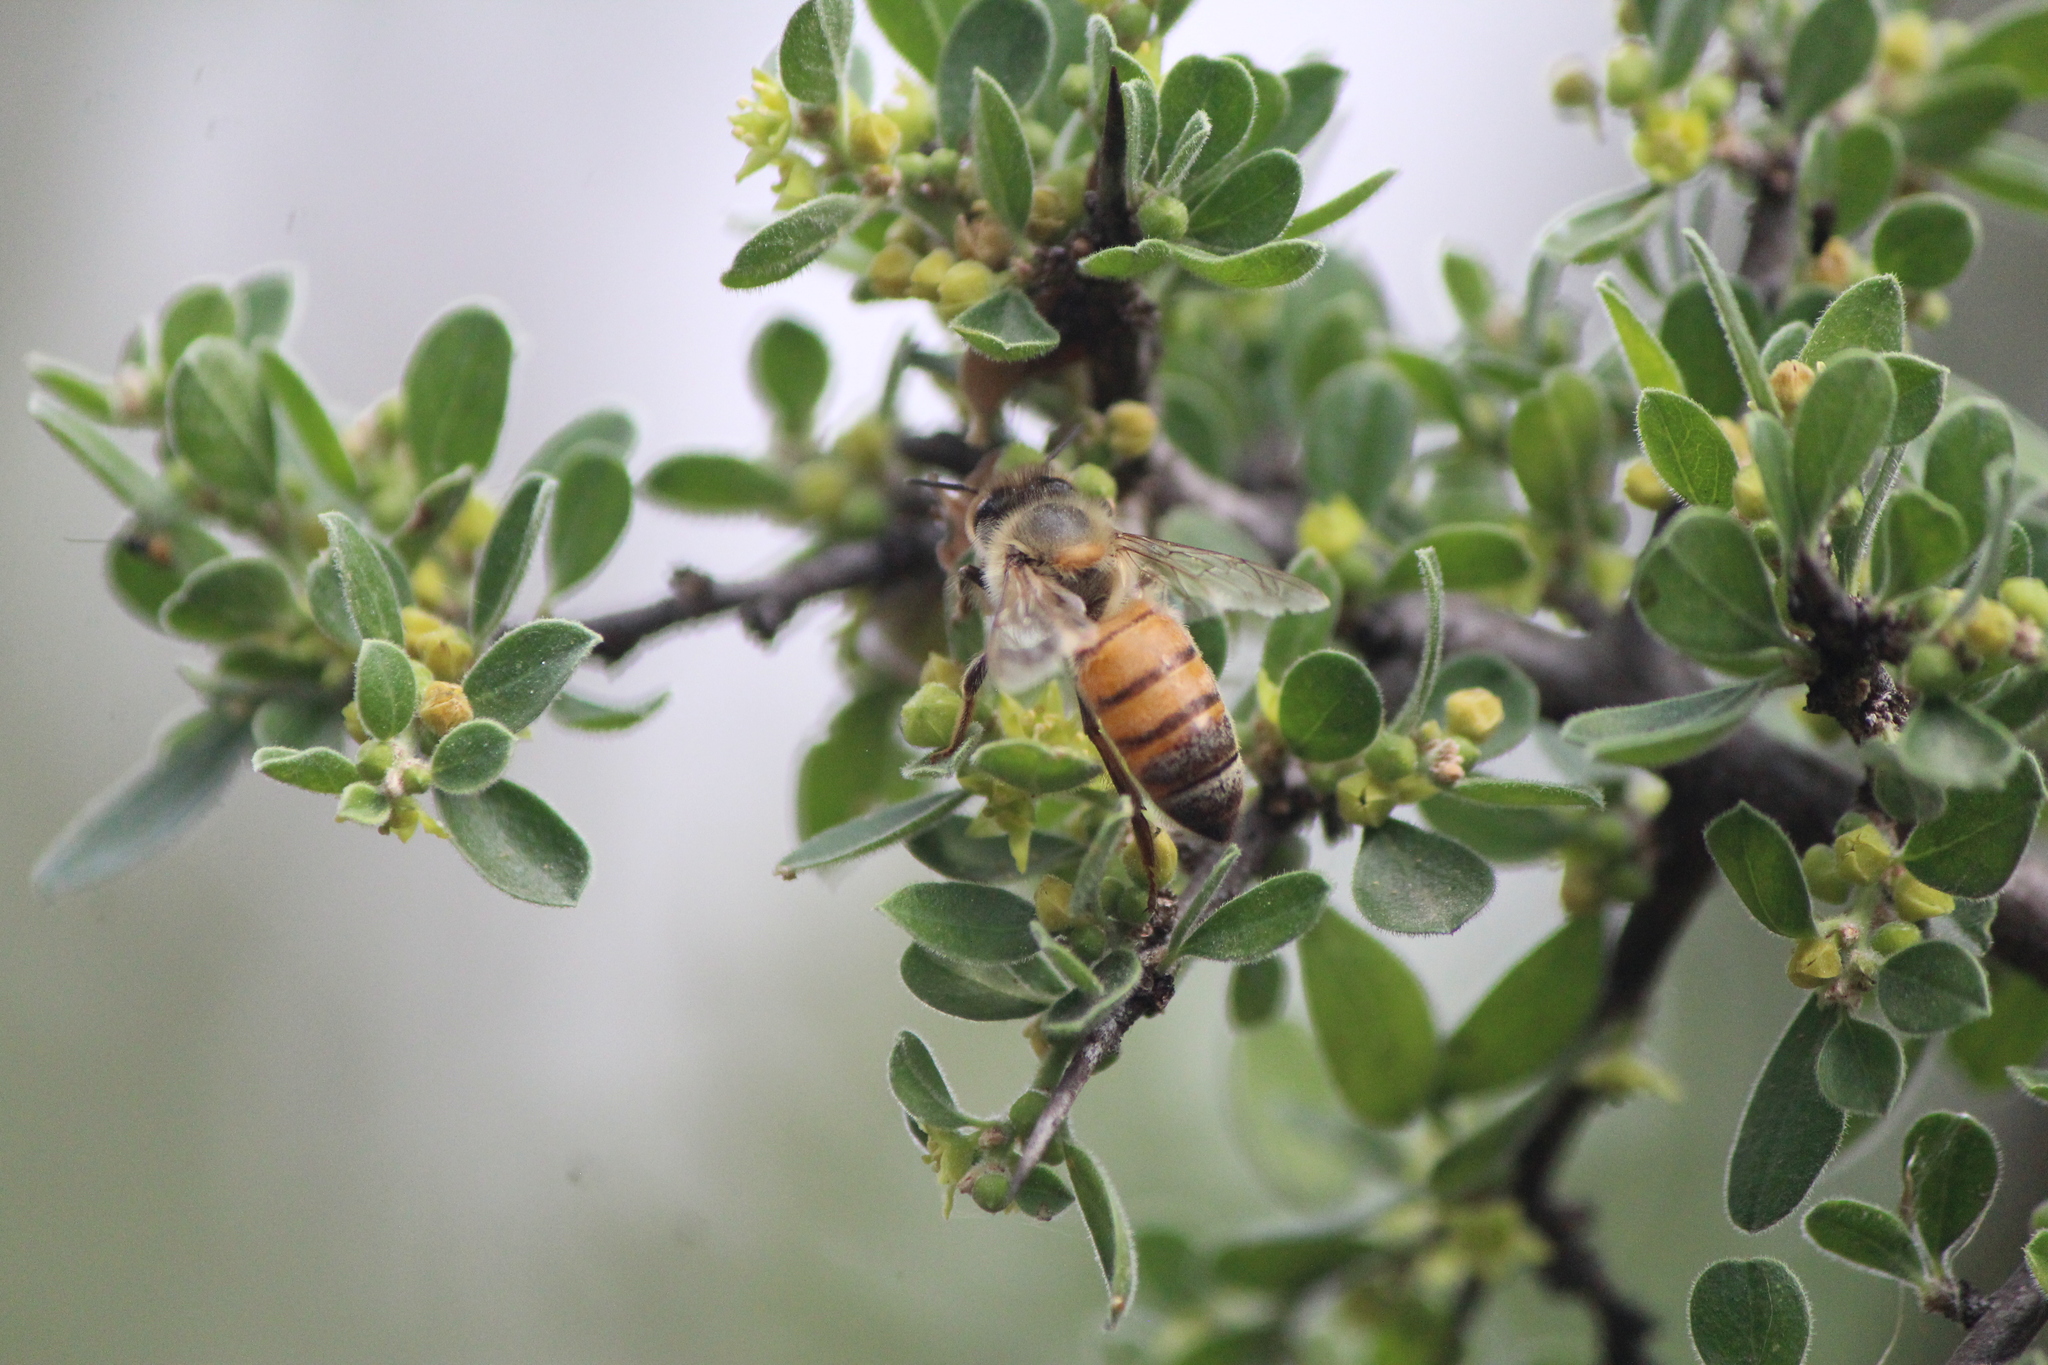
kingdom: Animalia
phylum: Arthropoda
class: Insecta
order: Hymenoptera
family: Apidae
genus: Apis
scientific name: Apis mellifera
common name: Honey bee
